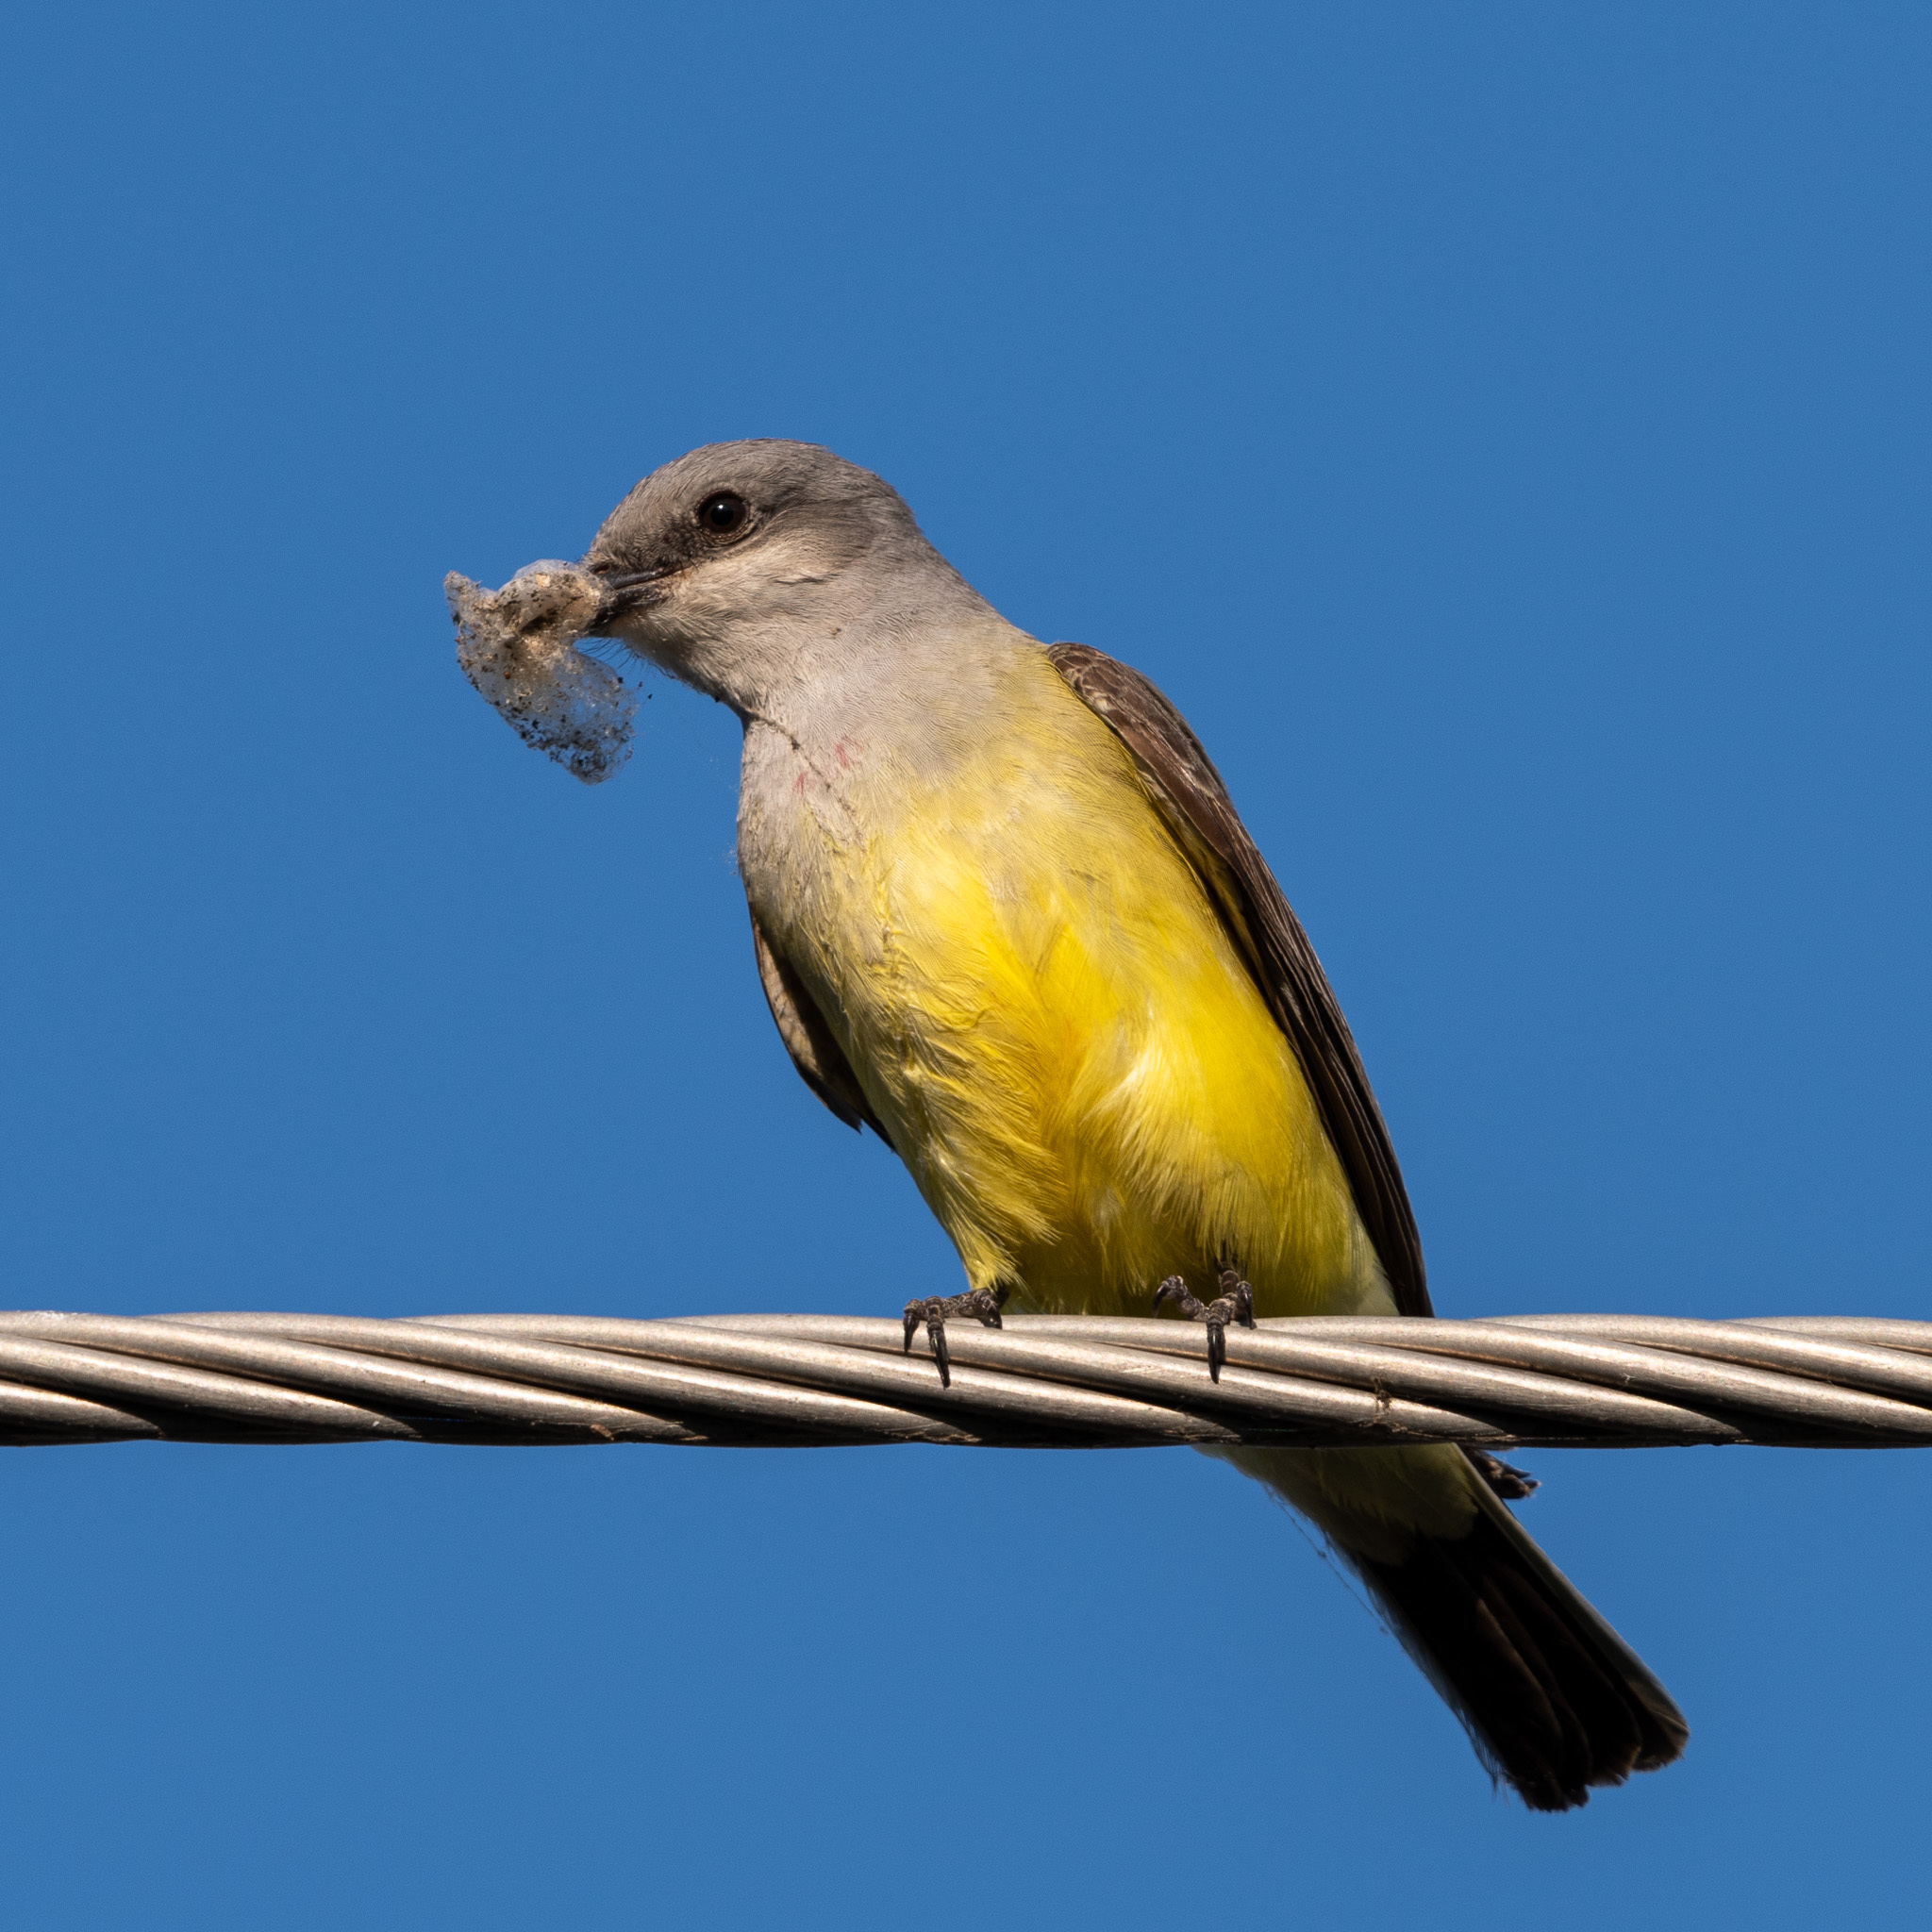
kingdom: Animalia
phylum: Chordata
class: Aves
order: Passeriformes
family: Tyrannidae
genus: Tyrannus
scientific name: Tyrannus verticalis
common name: Western kingbird
